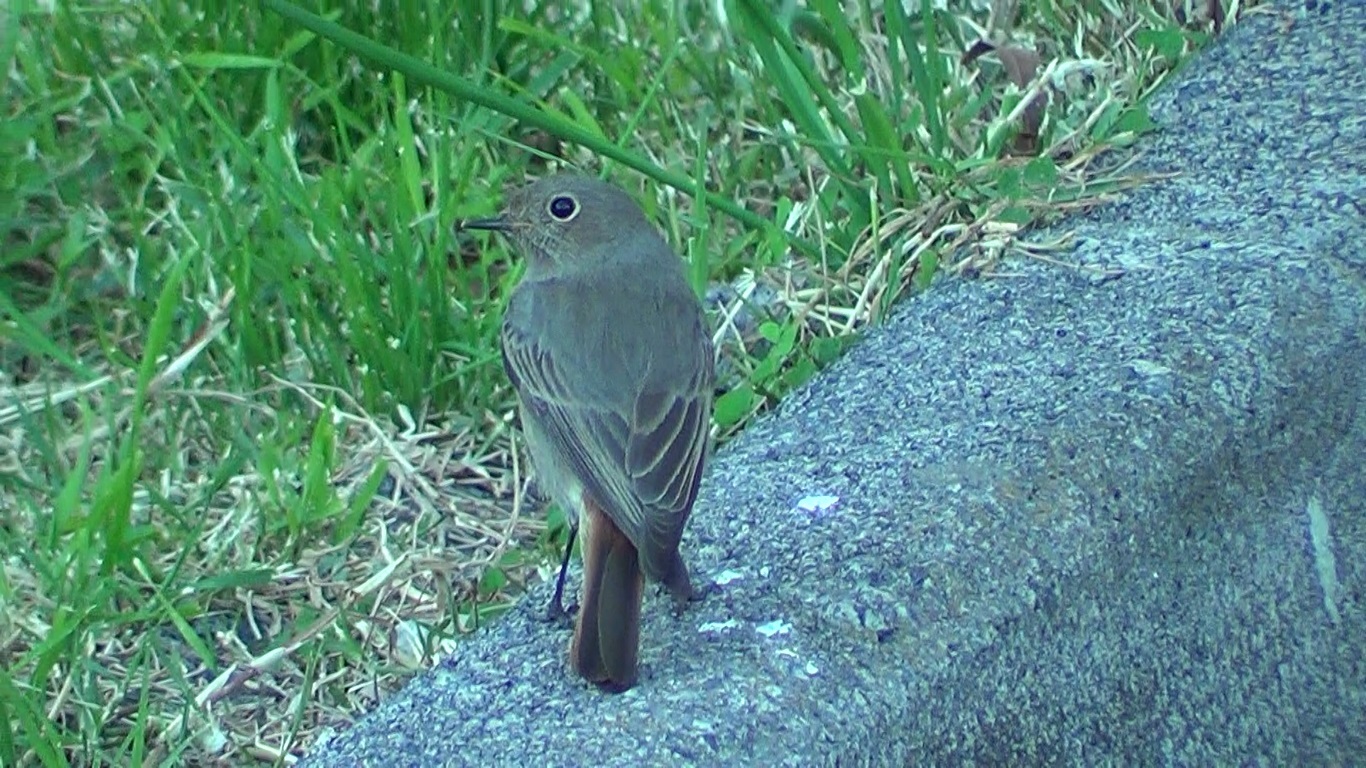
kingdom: Animalia
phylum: Chordata
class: Aves
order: Passeriformes
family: Muscicapidae
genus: Phoenicurus
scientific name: Phoenicurus ochruros
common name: Black redstart
